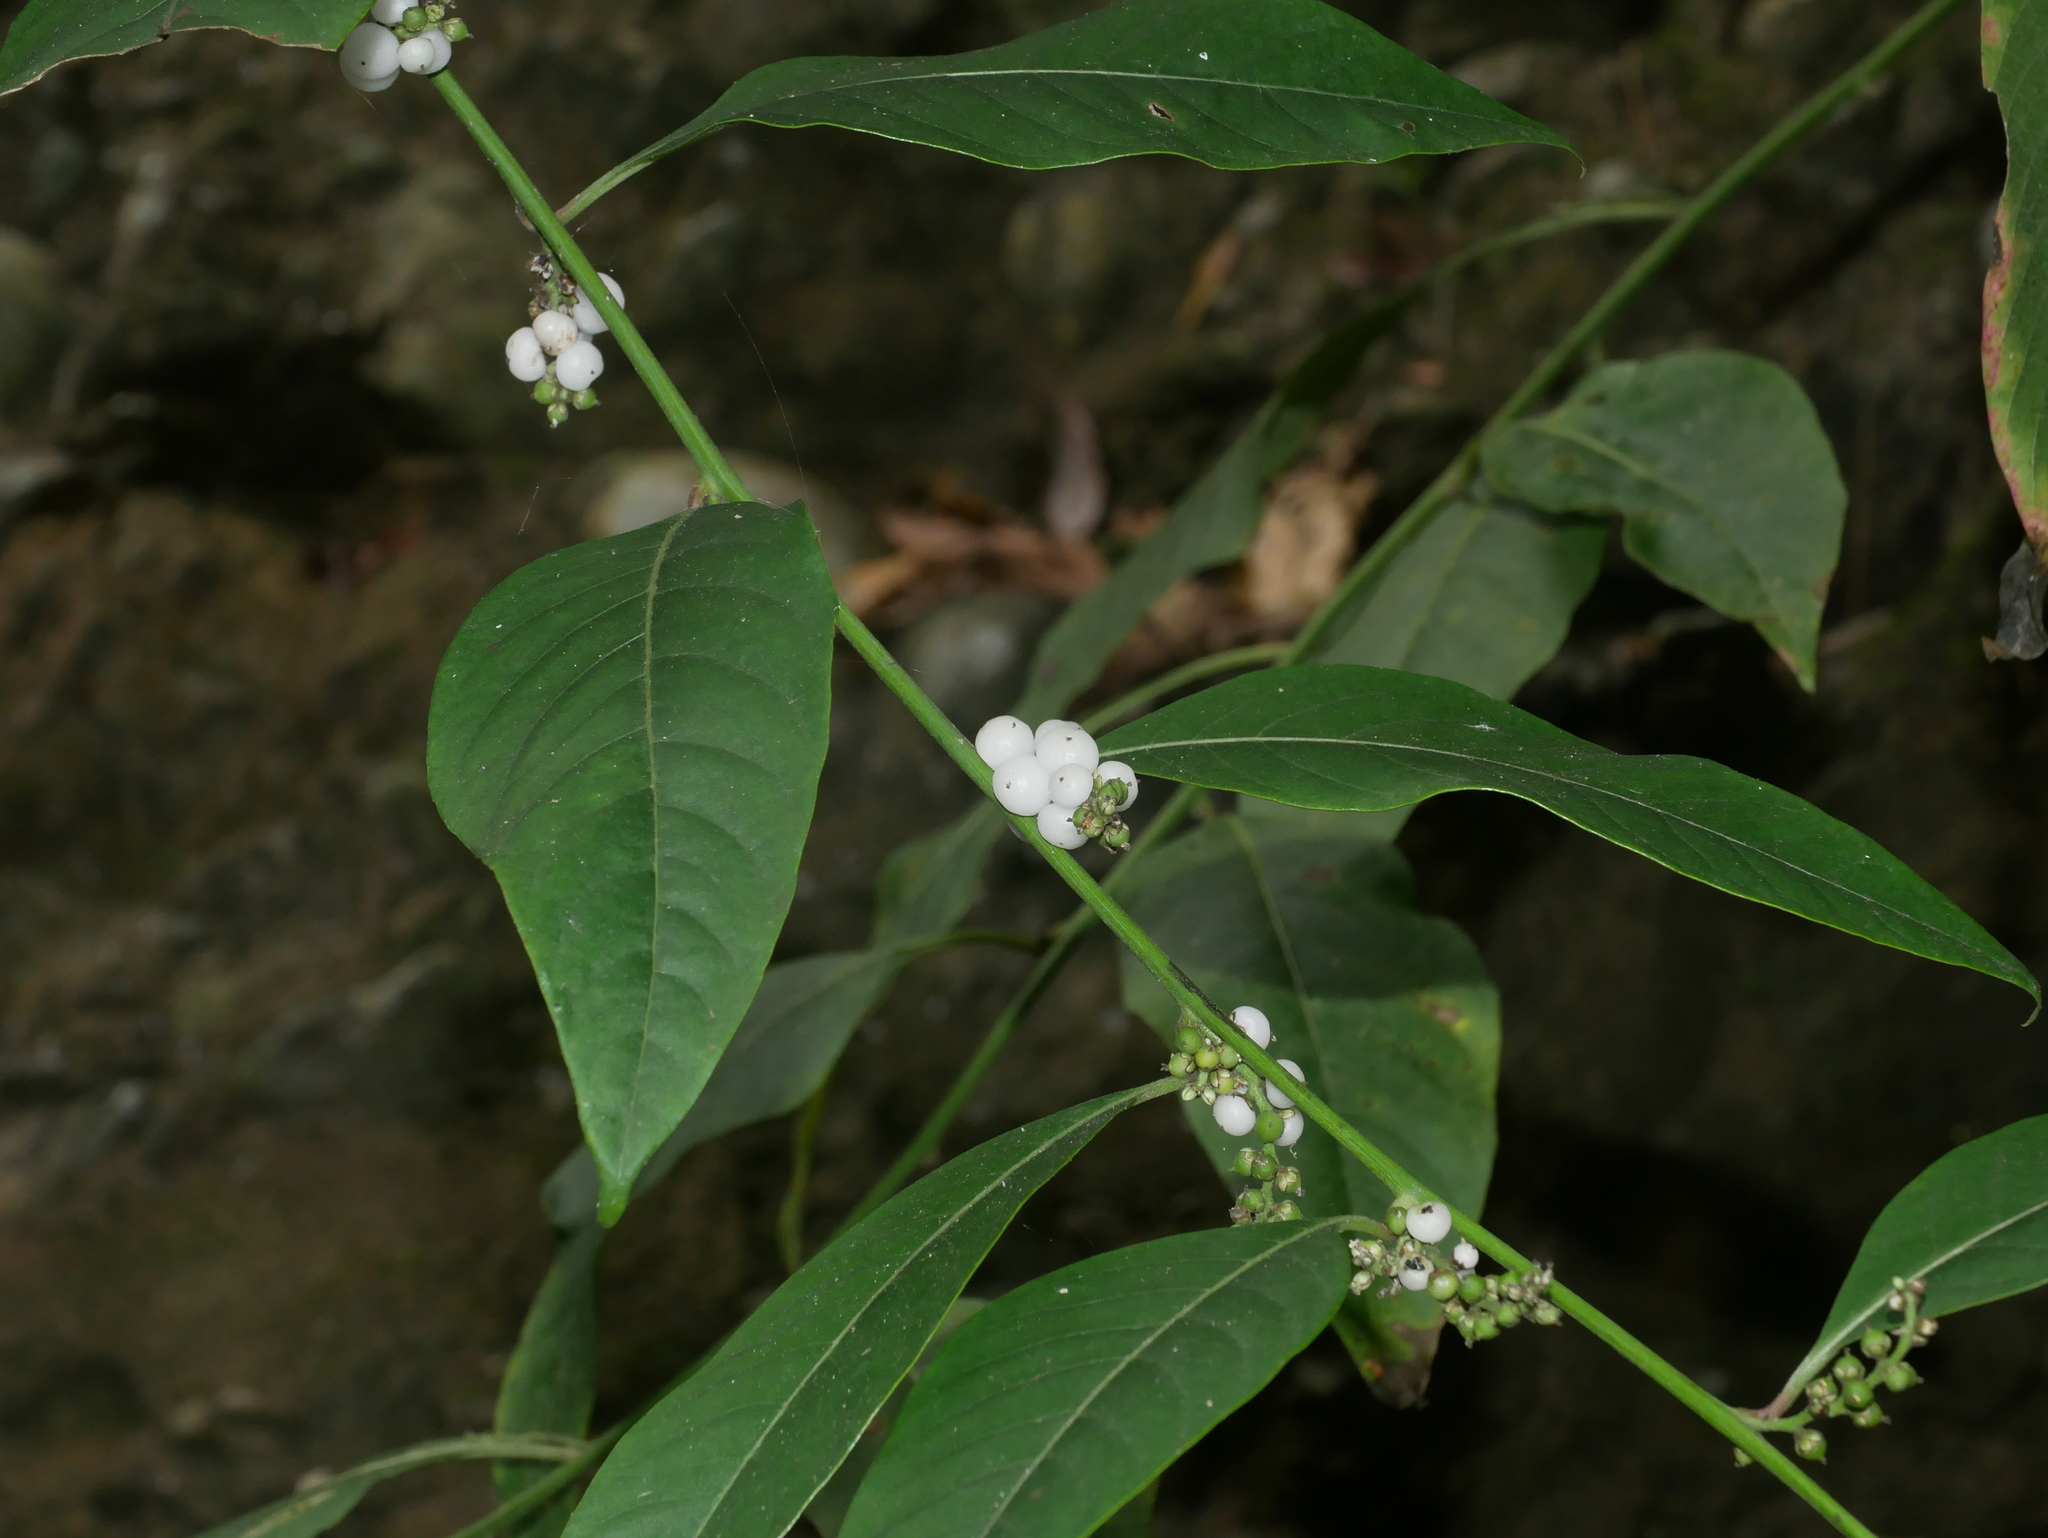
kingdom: Plantae
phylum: Tracheophyta
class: Magnoliopsida
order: Caryophyllales
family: Amaranthaceae
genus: Deeringia
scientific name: Deeringia polysperma
